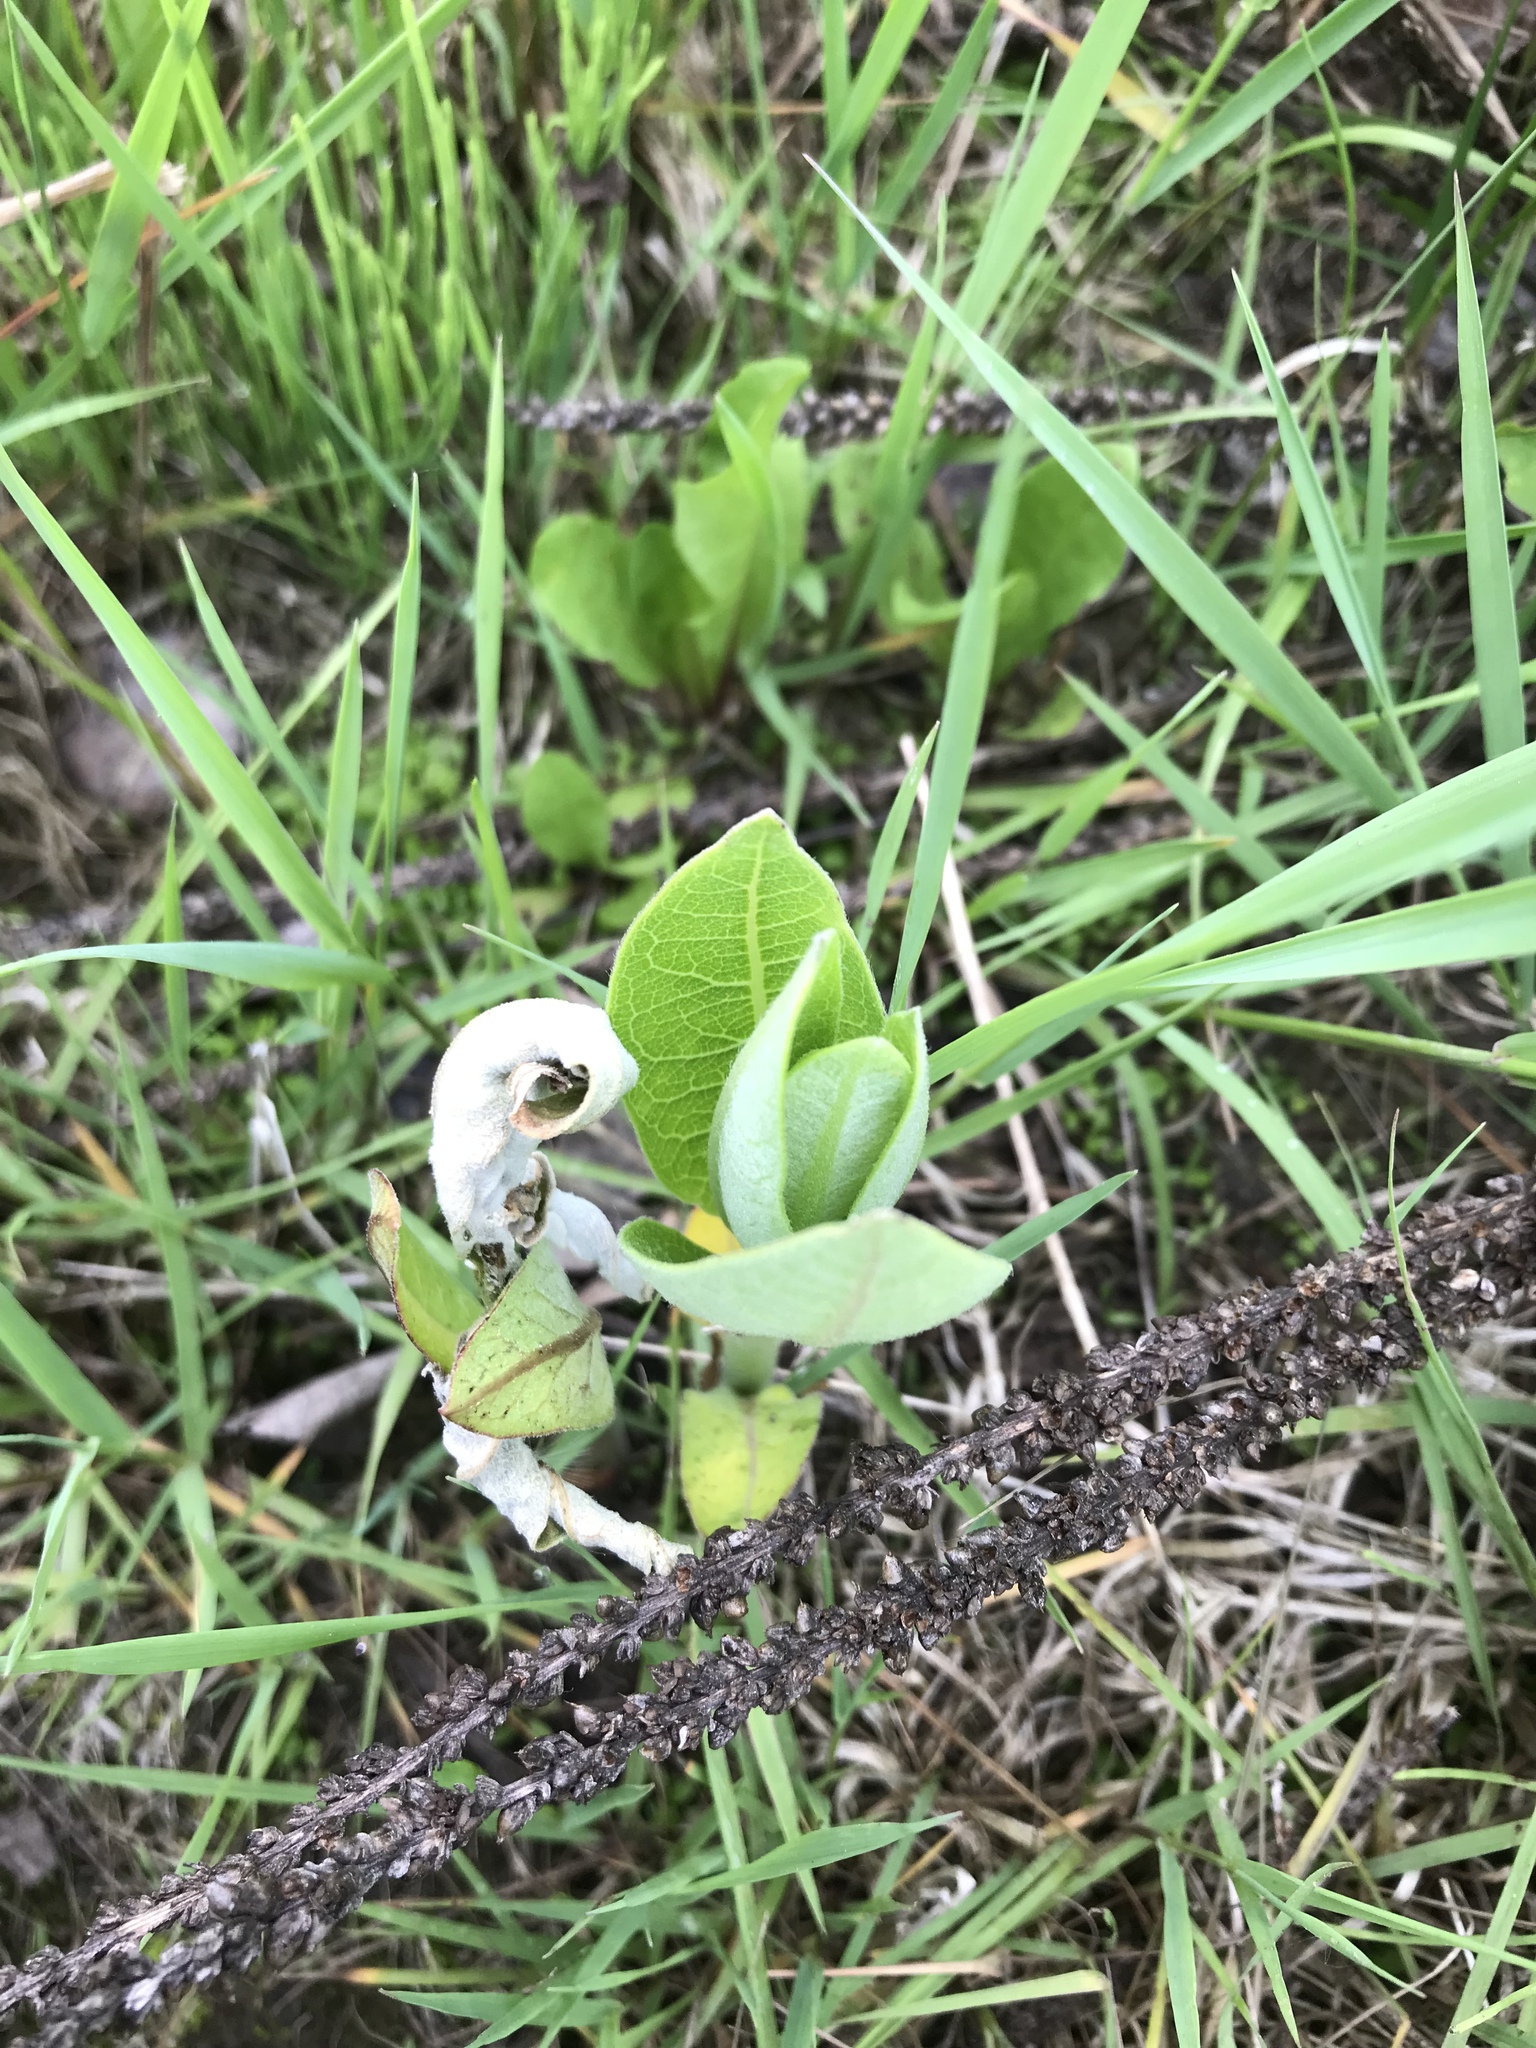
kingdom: Plantae
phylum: Tracheophyta
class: Magnoliopsida
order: Gentianales
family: Apocynaceae
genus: Asclepias
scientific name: Asclepias syriaca
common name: Common milkweed
